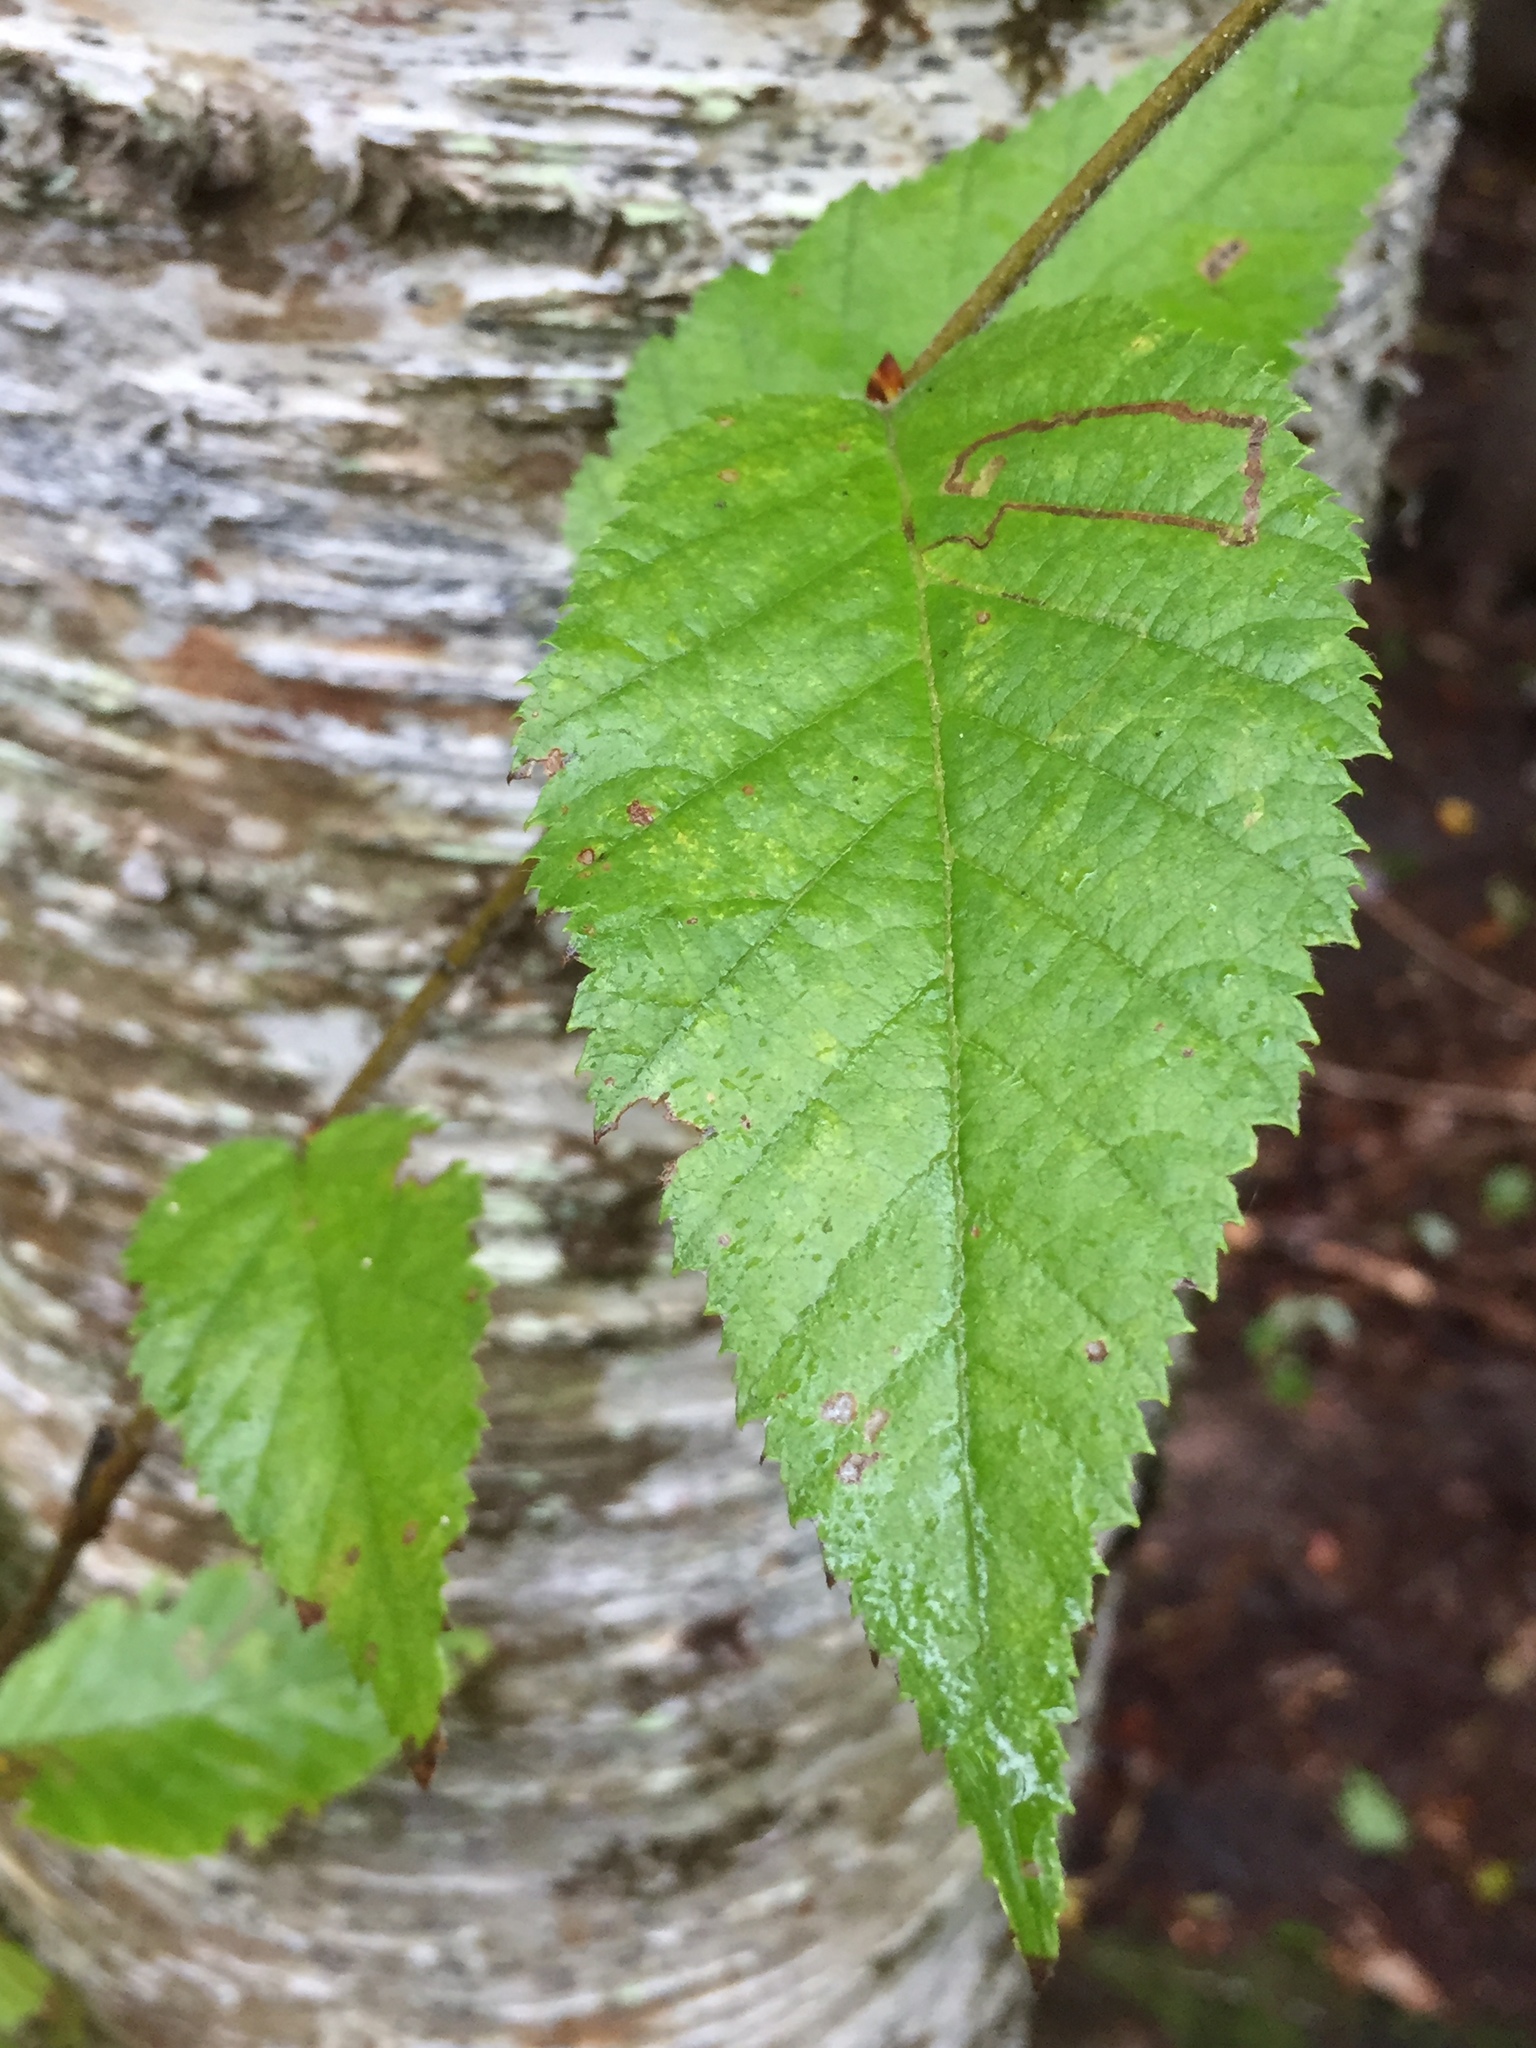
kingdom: Plantae
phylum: Tracheophyta
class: Magnoliopsida
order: Fagales
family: Betulaceae
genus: Betula
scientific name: Betula alleghaniensis
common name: Yellow birch
